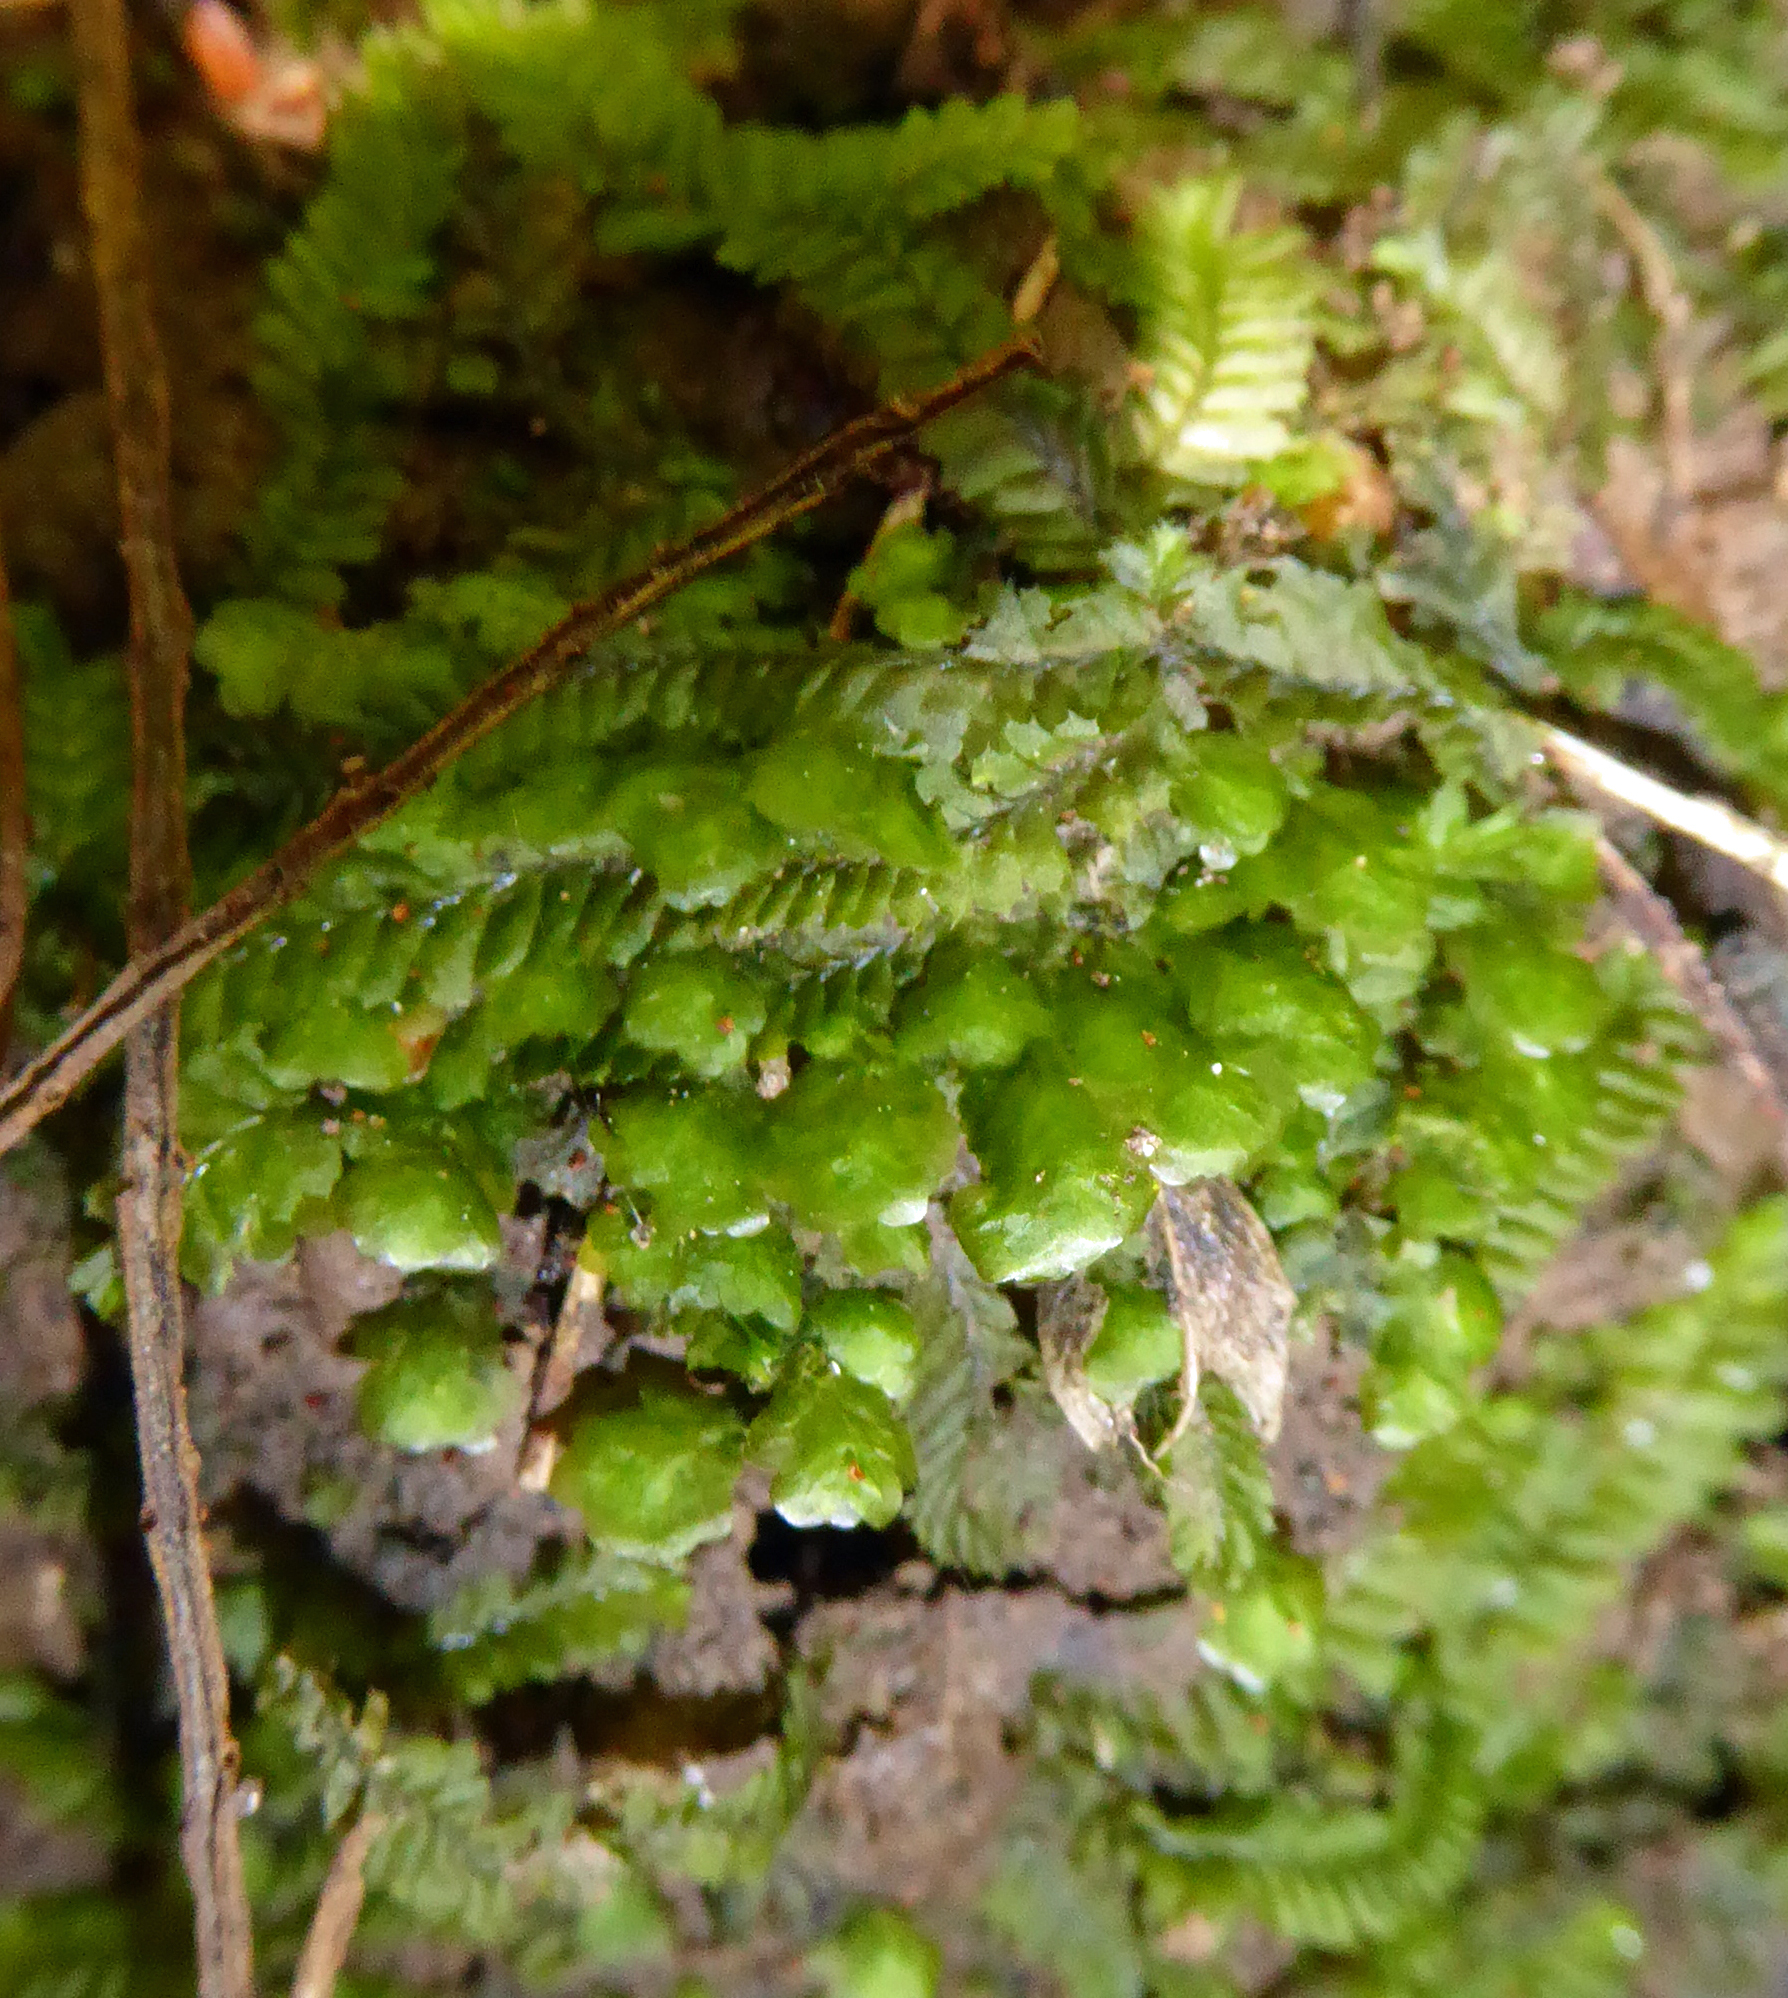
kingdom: Plantae
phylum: Bryophyta
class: Bryopsida
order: Hookeriales
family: Daltoniaceae
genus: Achrophyllum
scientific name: Achrophyllum dentatum
